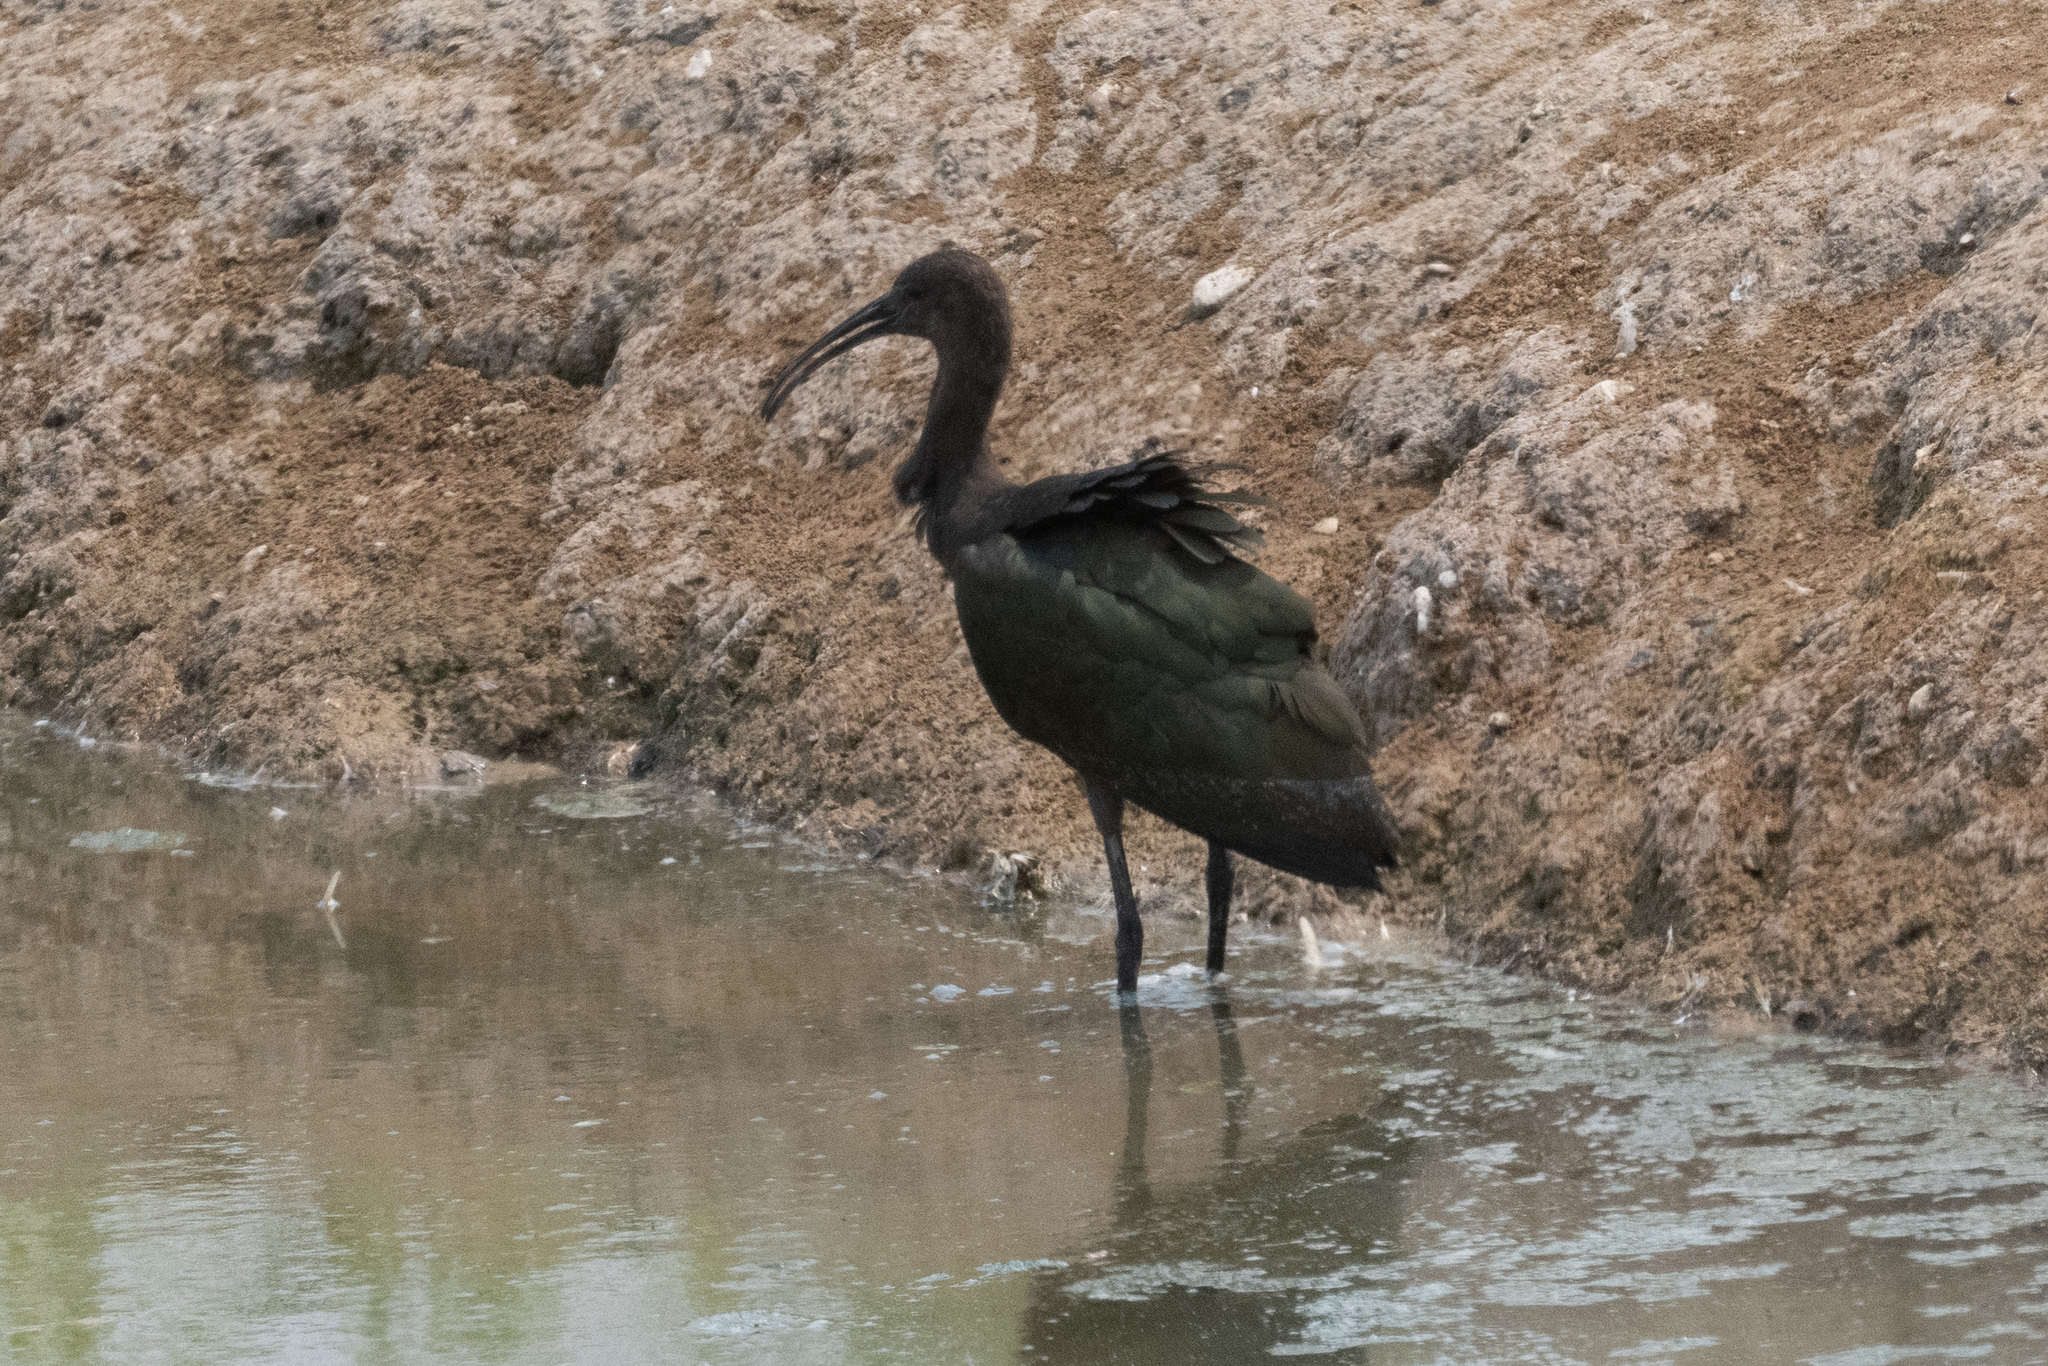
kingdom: Animalia
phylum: Chordata
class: Aves
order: Pelecaniformes
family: Threskiornithidae
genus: Plegadis
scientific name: Plegadis chihi
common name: White-faced ibis
